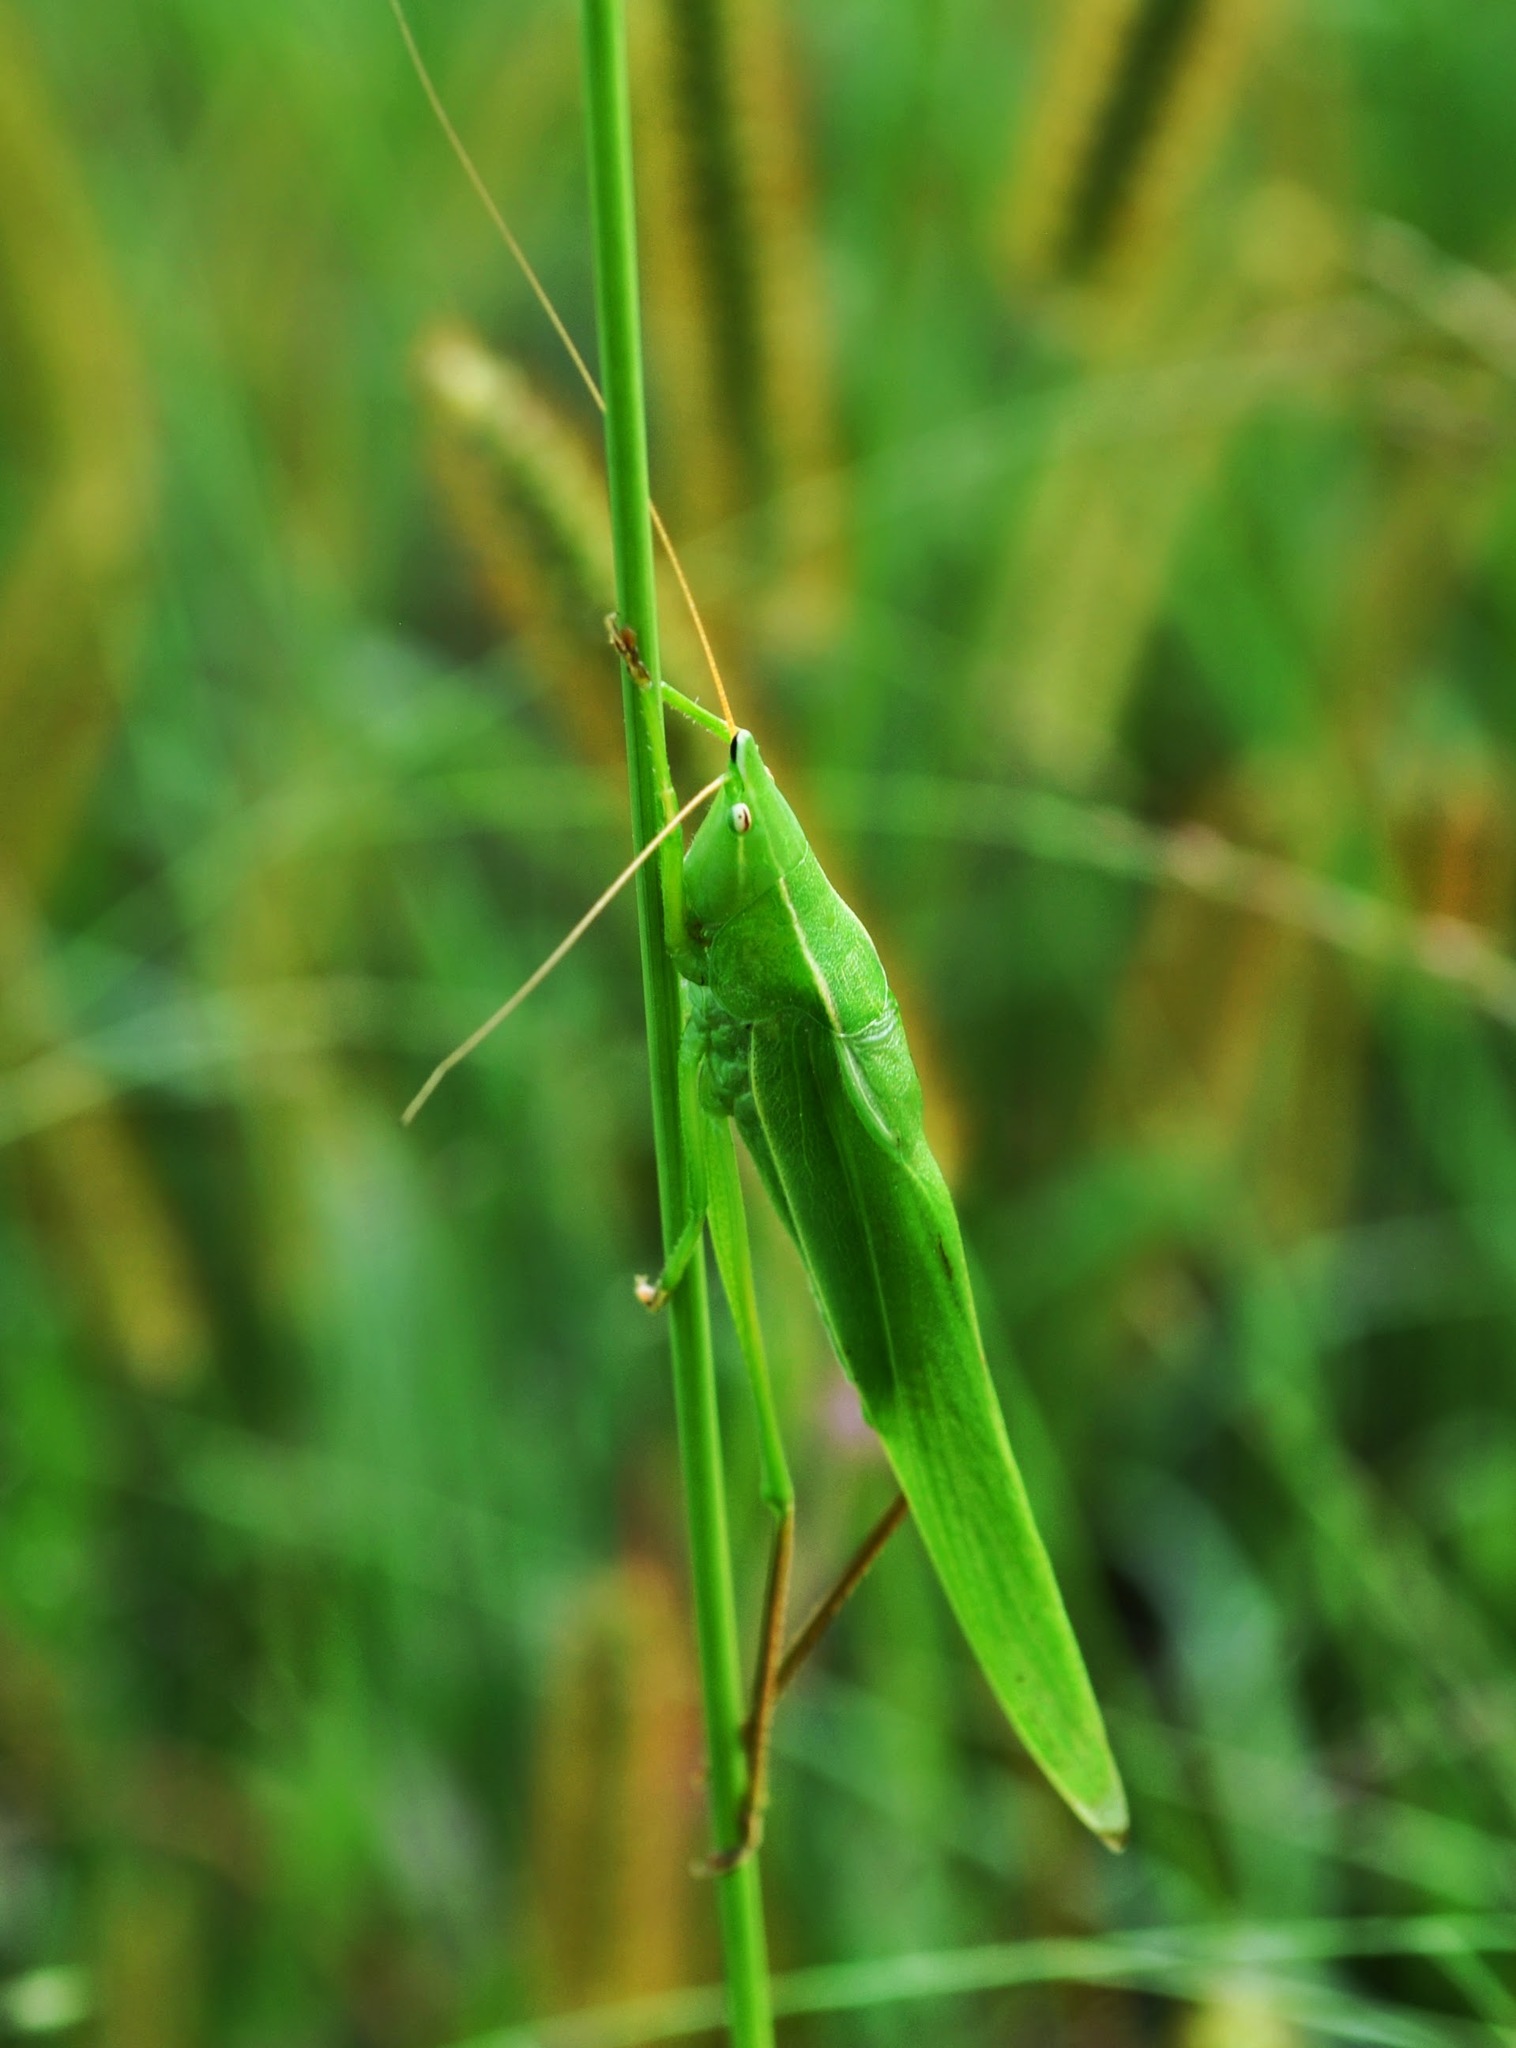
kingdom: Animalia
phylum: Arthropoda
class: Insecta
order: Orthoptera
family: Tettigoniidae
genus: Neoconocephalus
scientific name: Neoconocephalus ensiger
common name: Swordbearer
